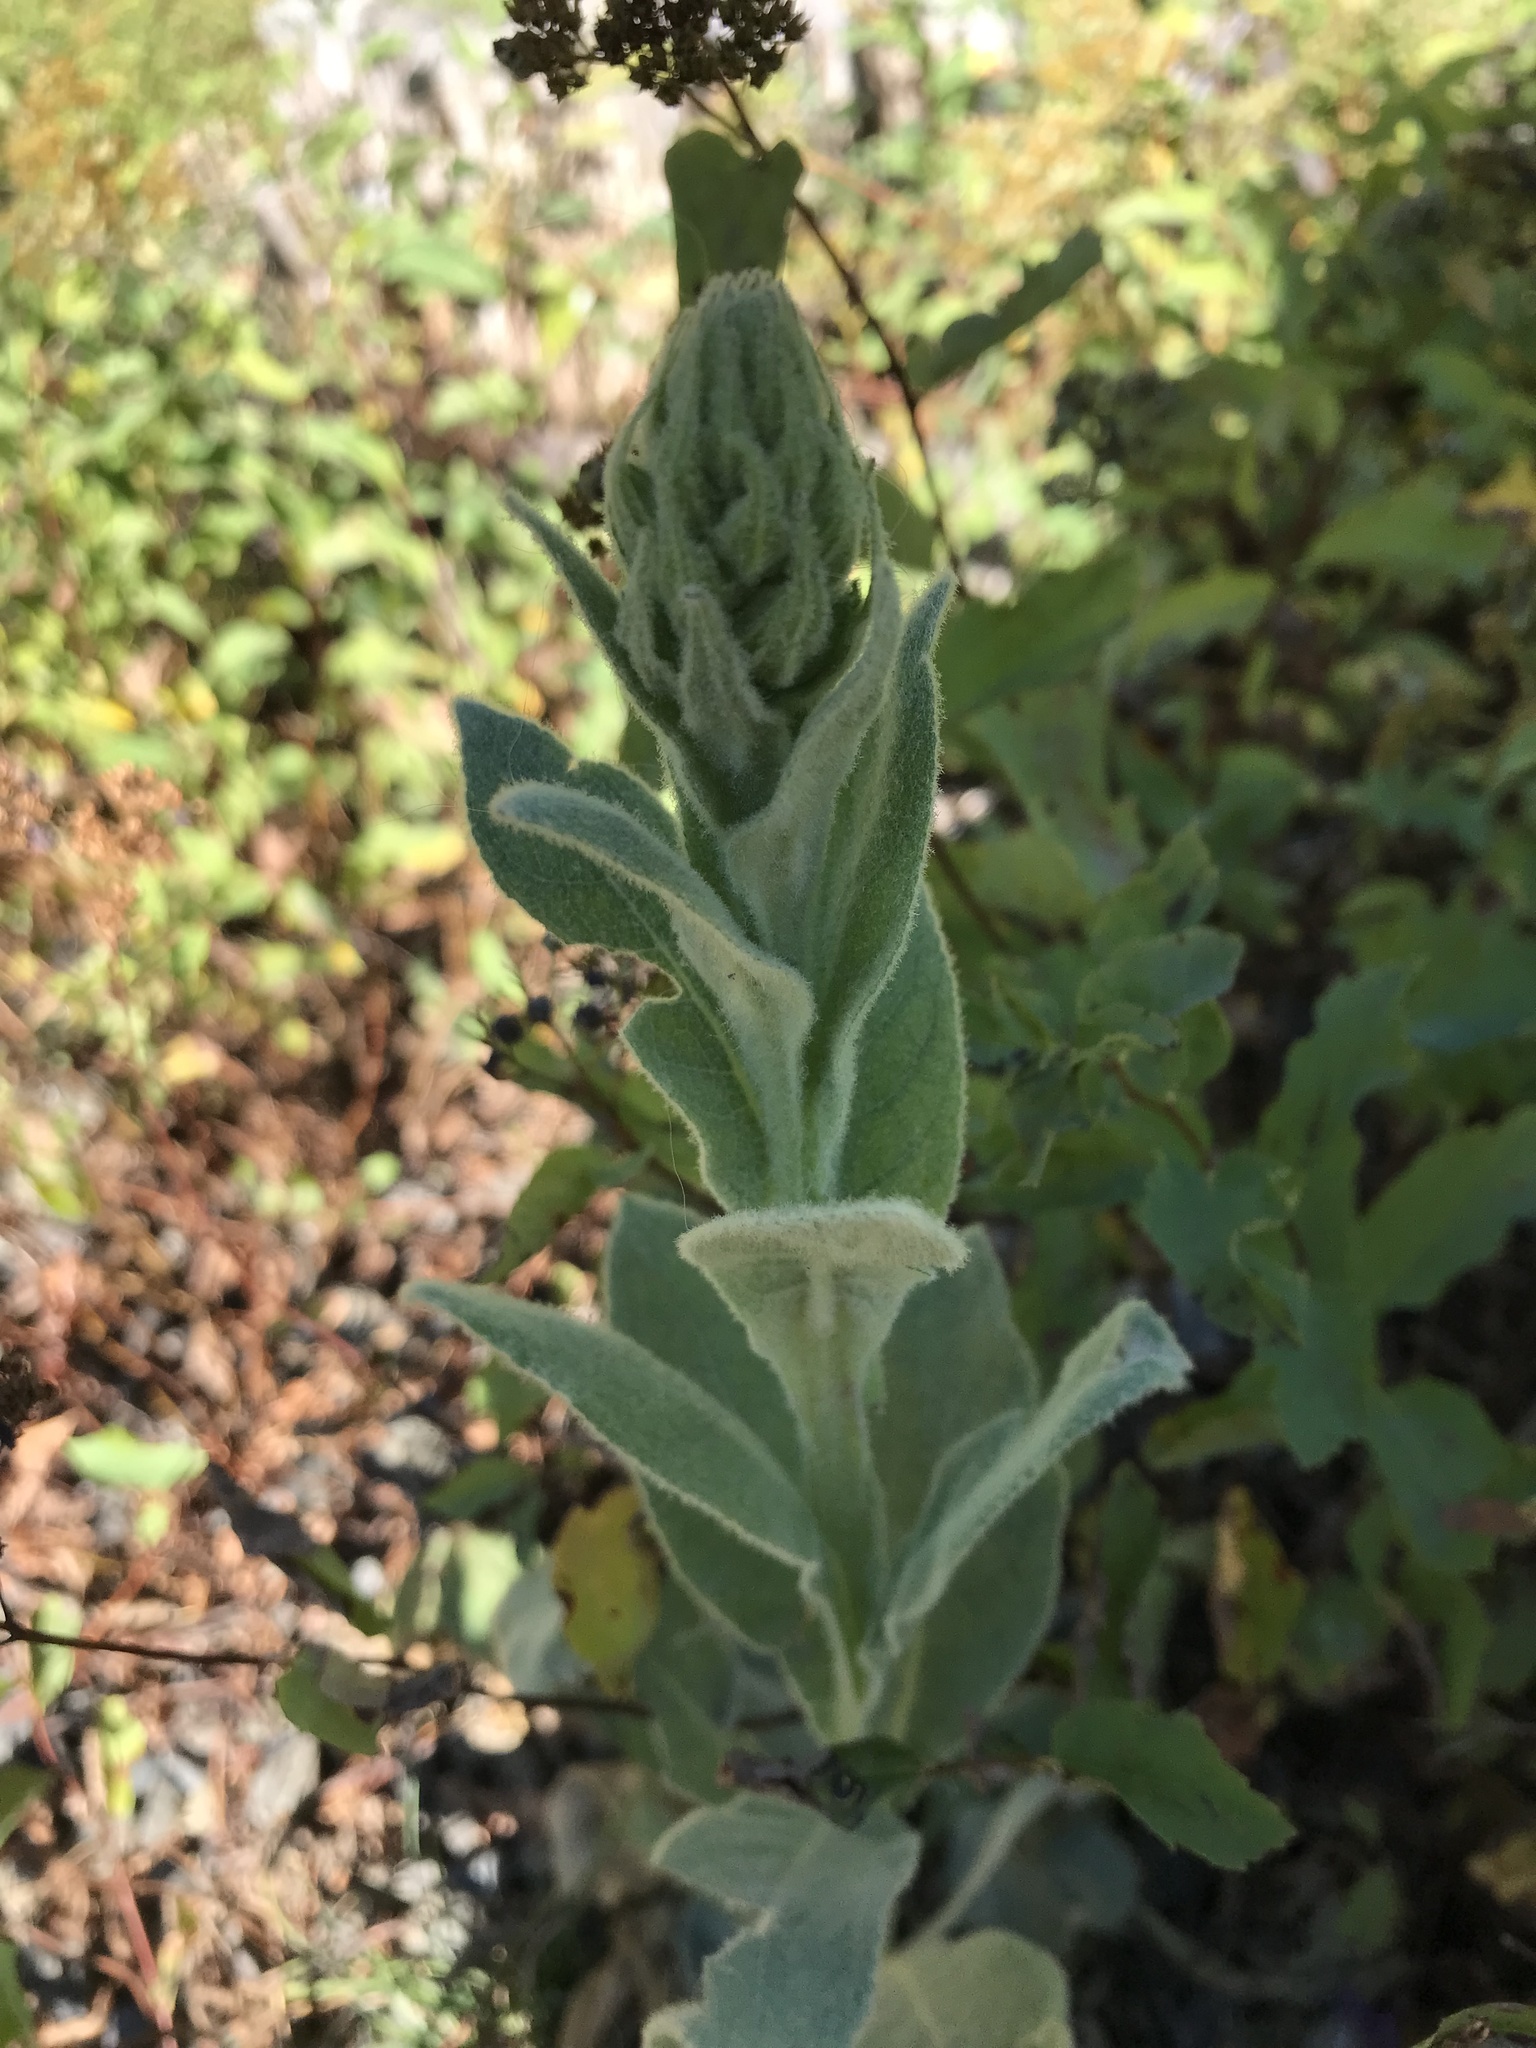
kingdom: Plantae
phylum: Tracheophyta
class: Magnoliopsida
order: Lamiales
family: Scrophulariaceae
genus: Verbascum
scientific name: Verbascum thapsus
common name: Common mullein
